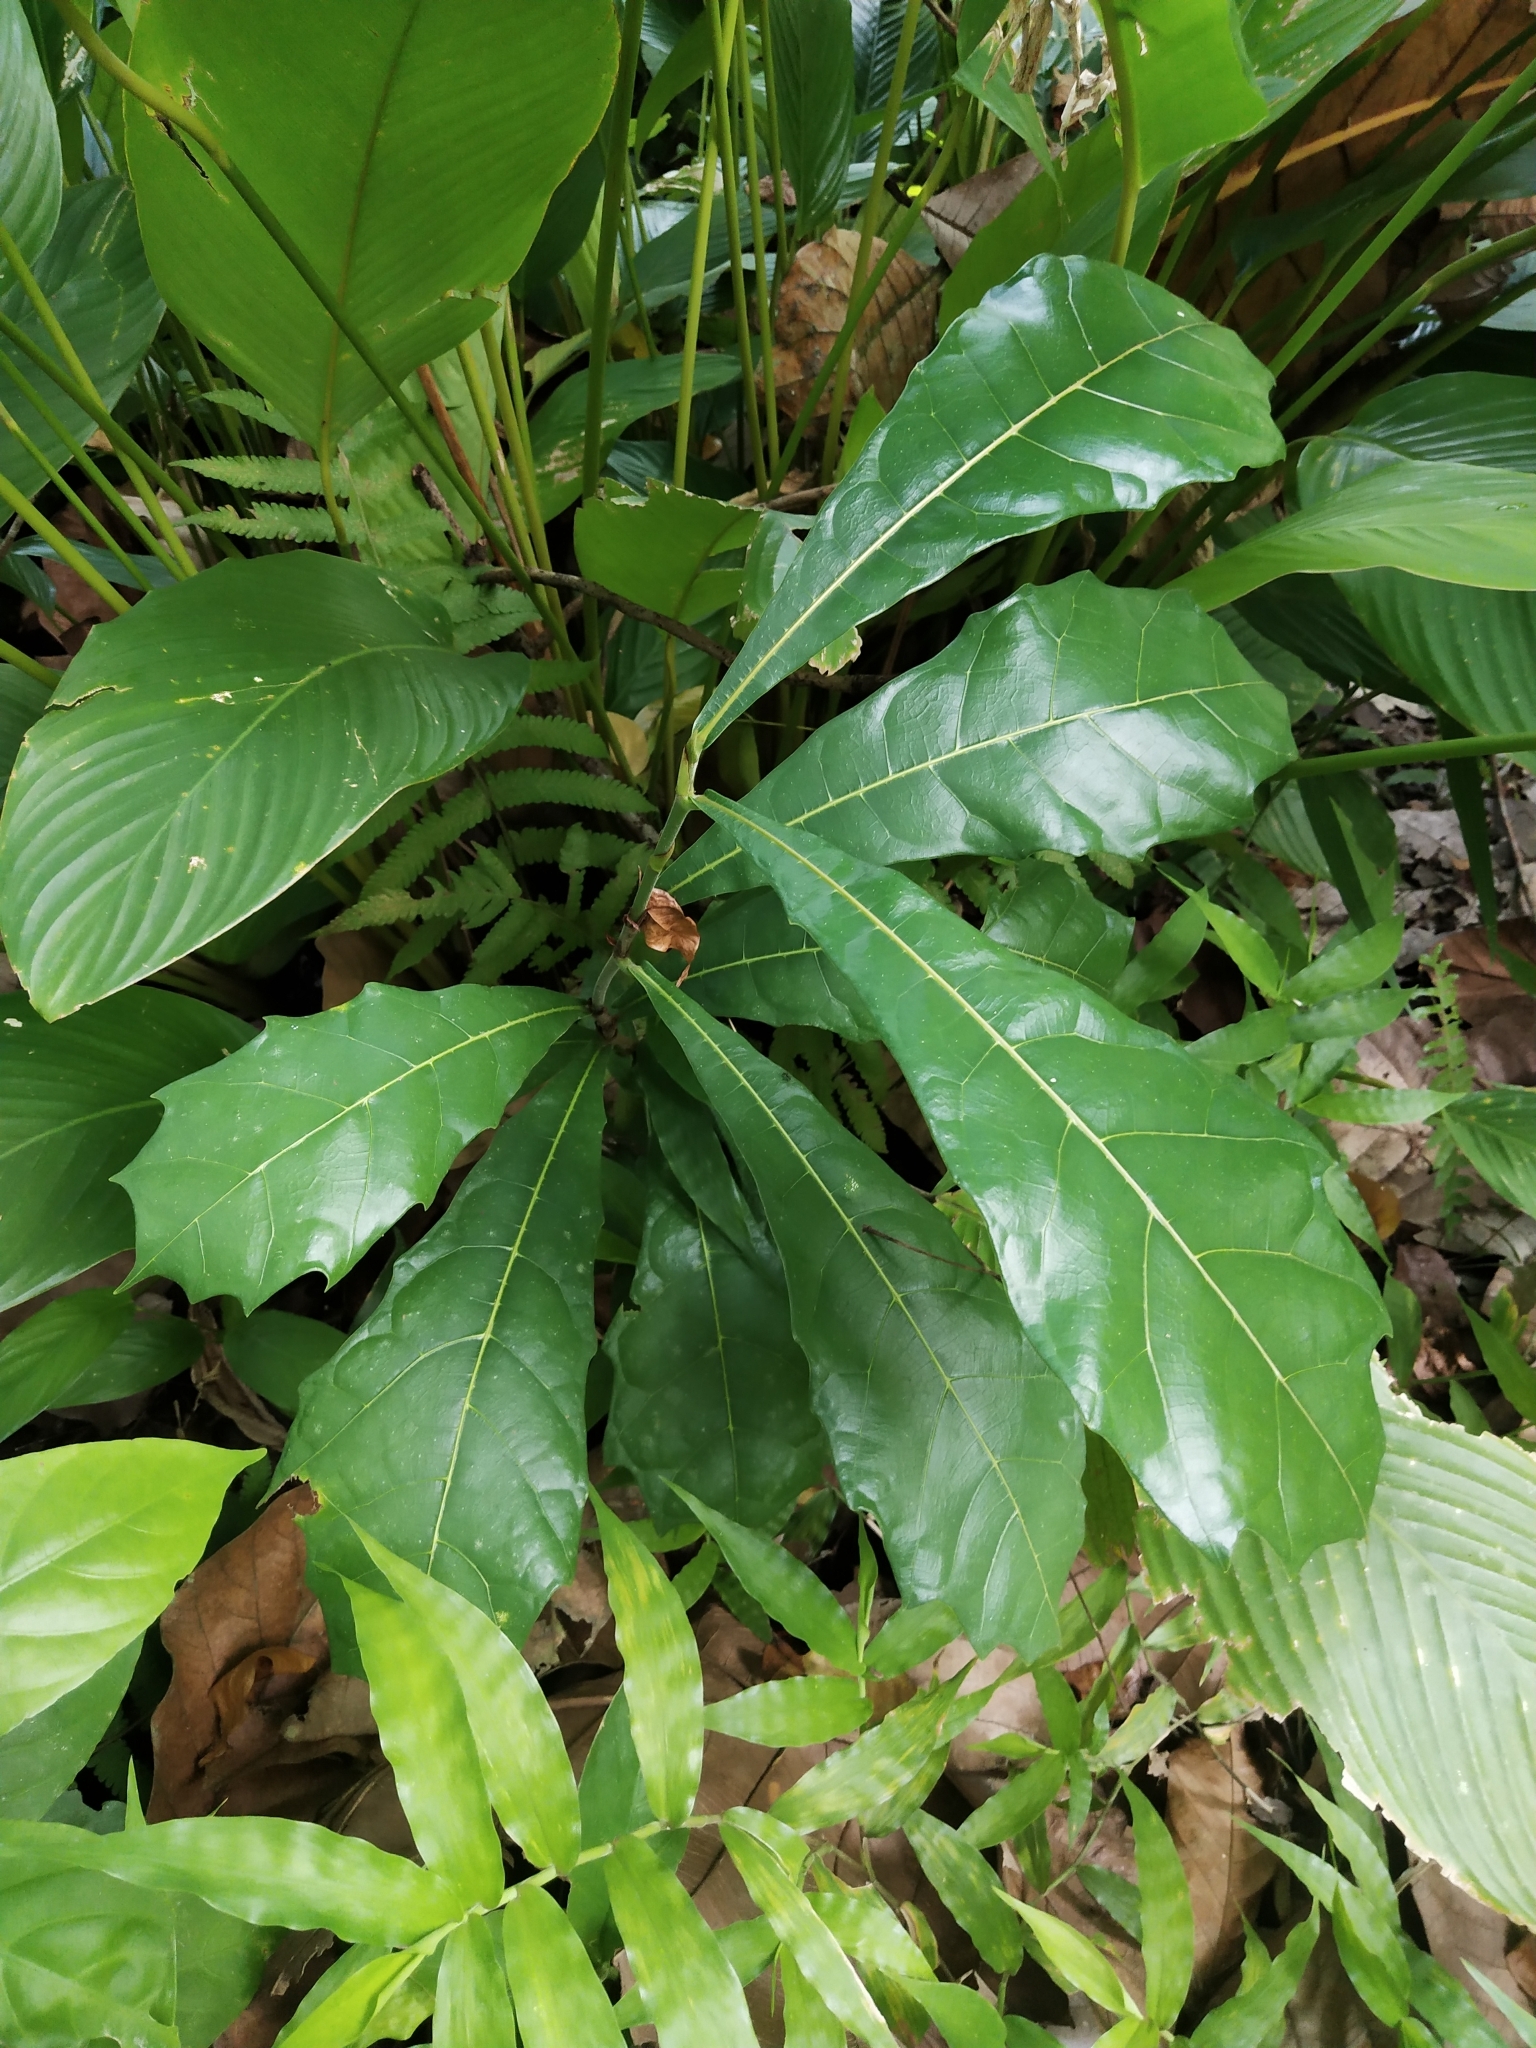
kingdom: Plantae
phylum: Tracheophyta
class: Magnoliopsida
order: Rosales
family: Moraceae
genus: Ficus
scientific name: Ficus pseudopalma
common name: Palm-like fig
